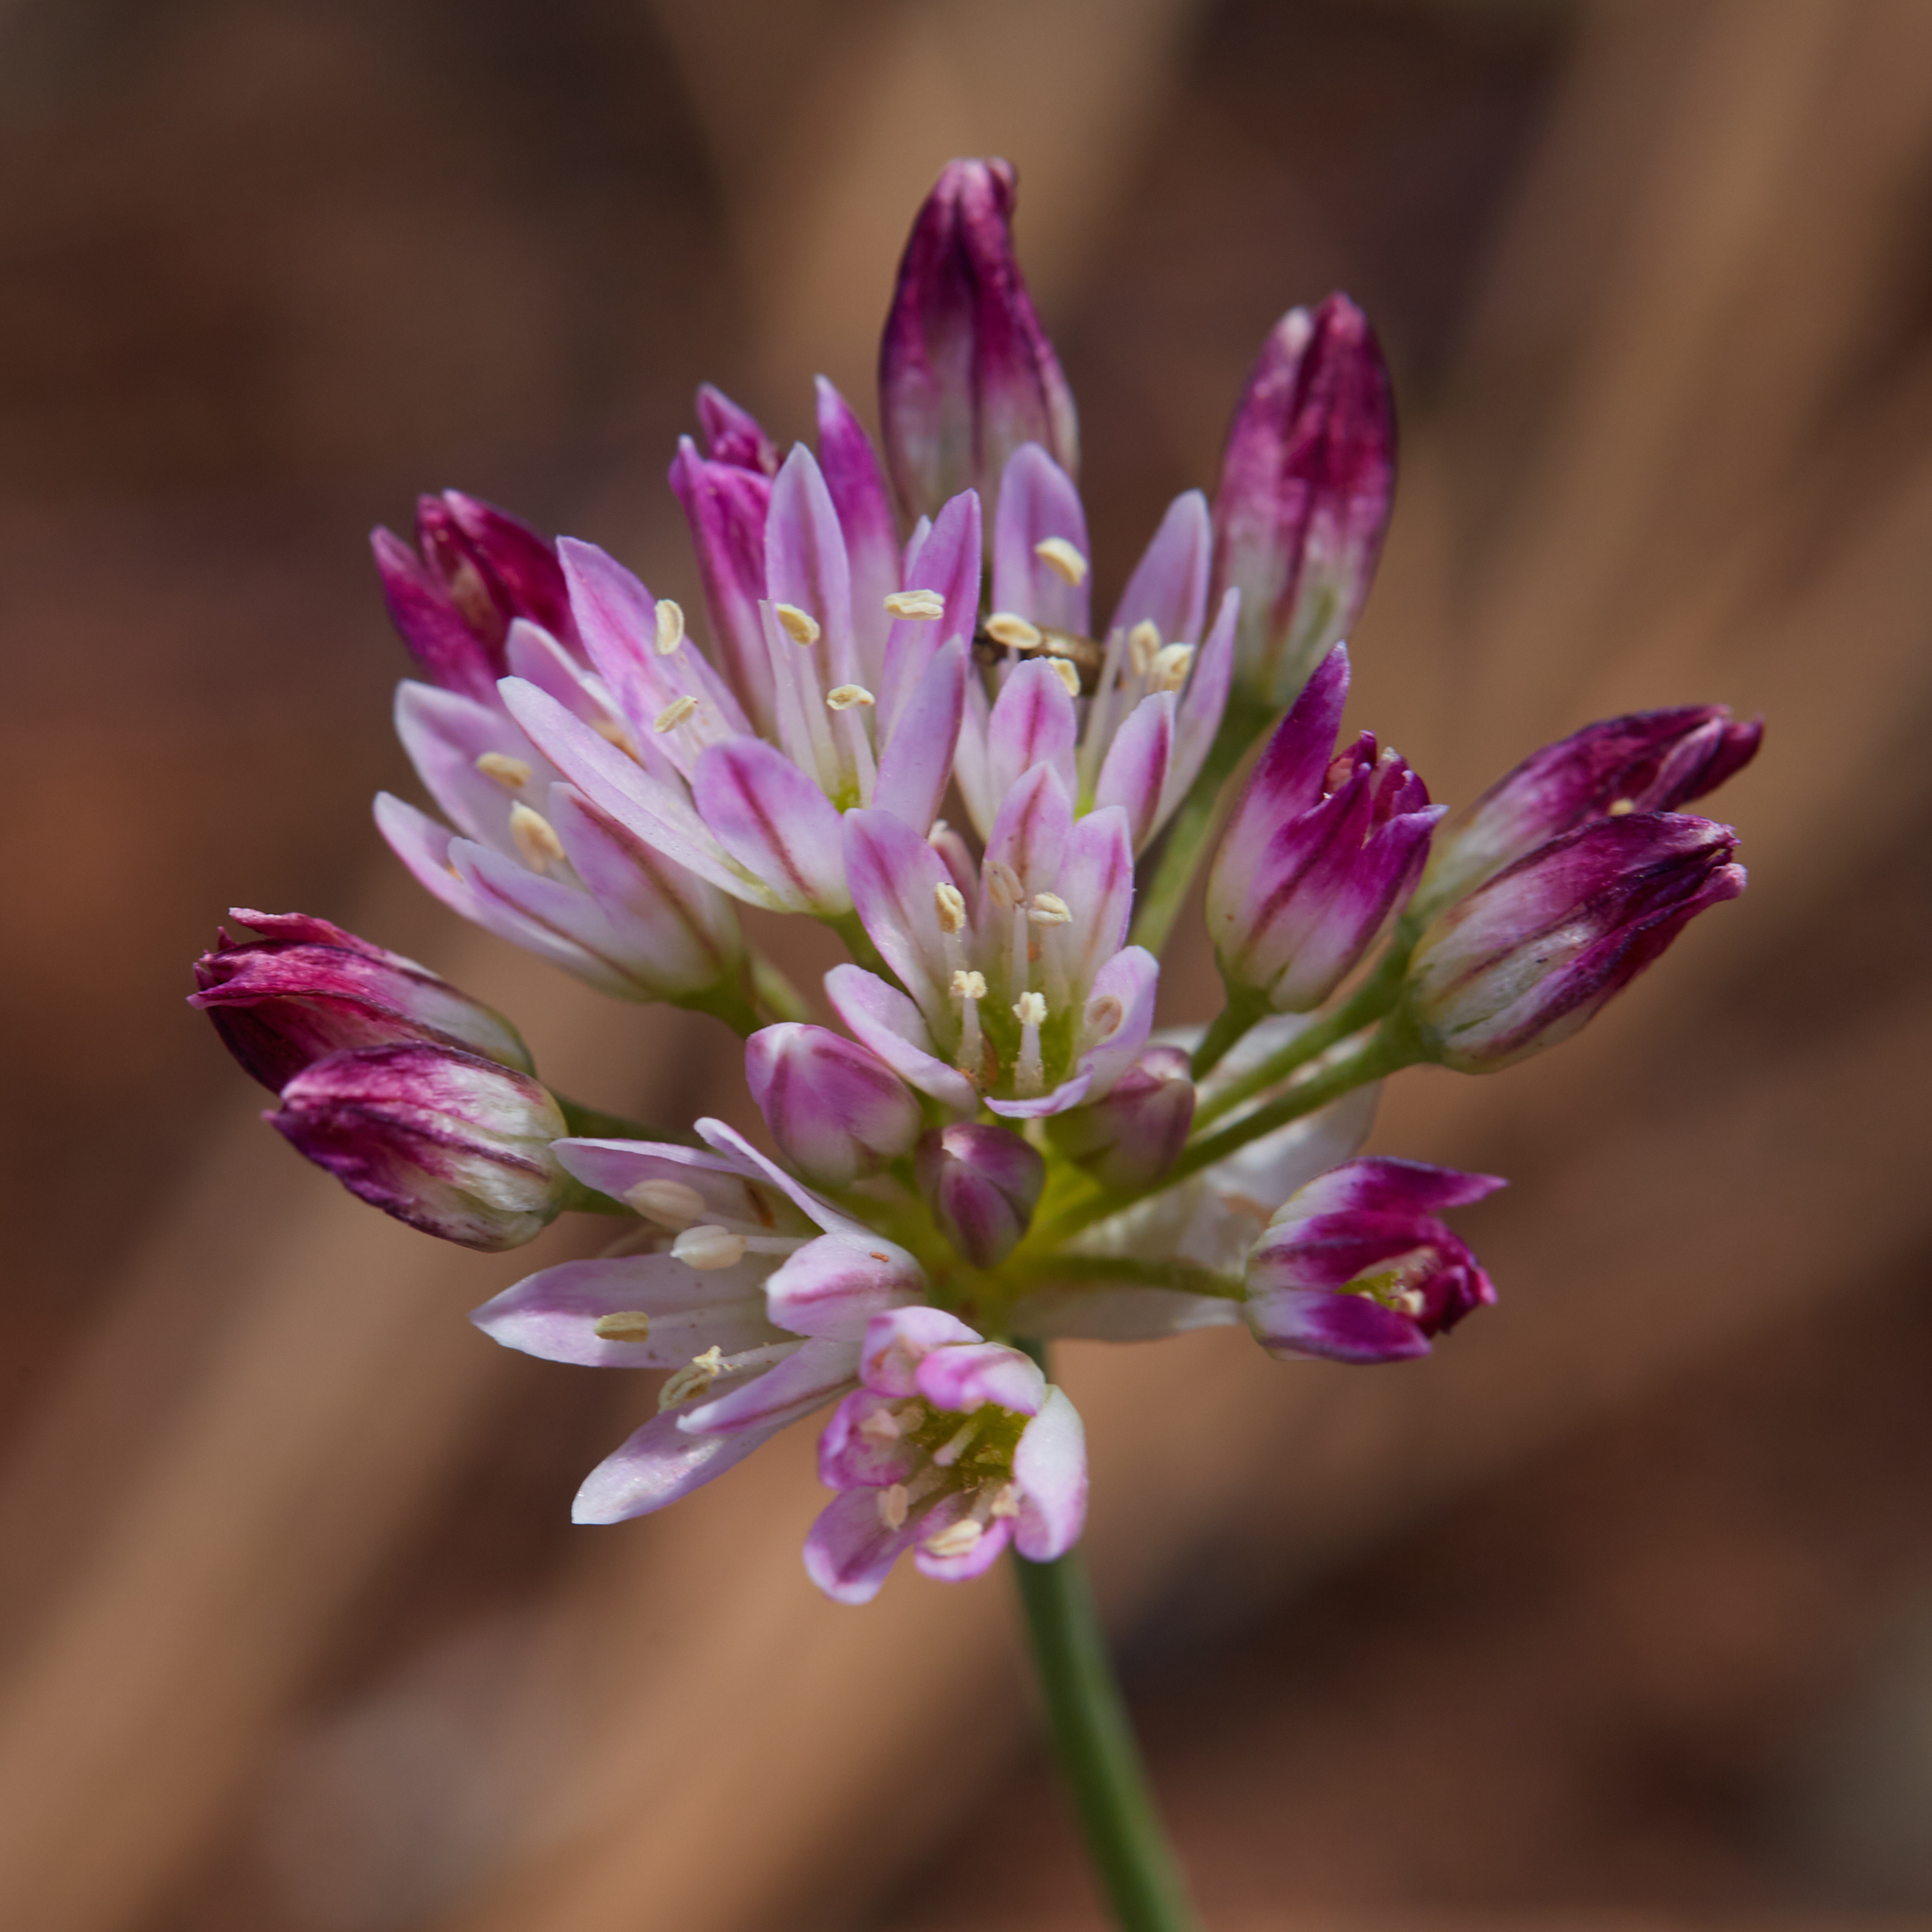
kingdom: Plantae
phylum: Tracheophyta
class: Liliopsida
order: Asparagales
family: Amaryllidaceae
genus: Allium
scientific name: Allium diabolense
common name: Serpentine onion
